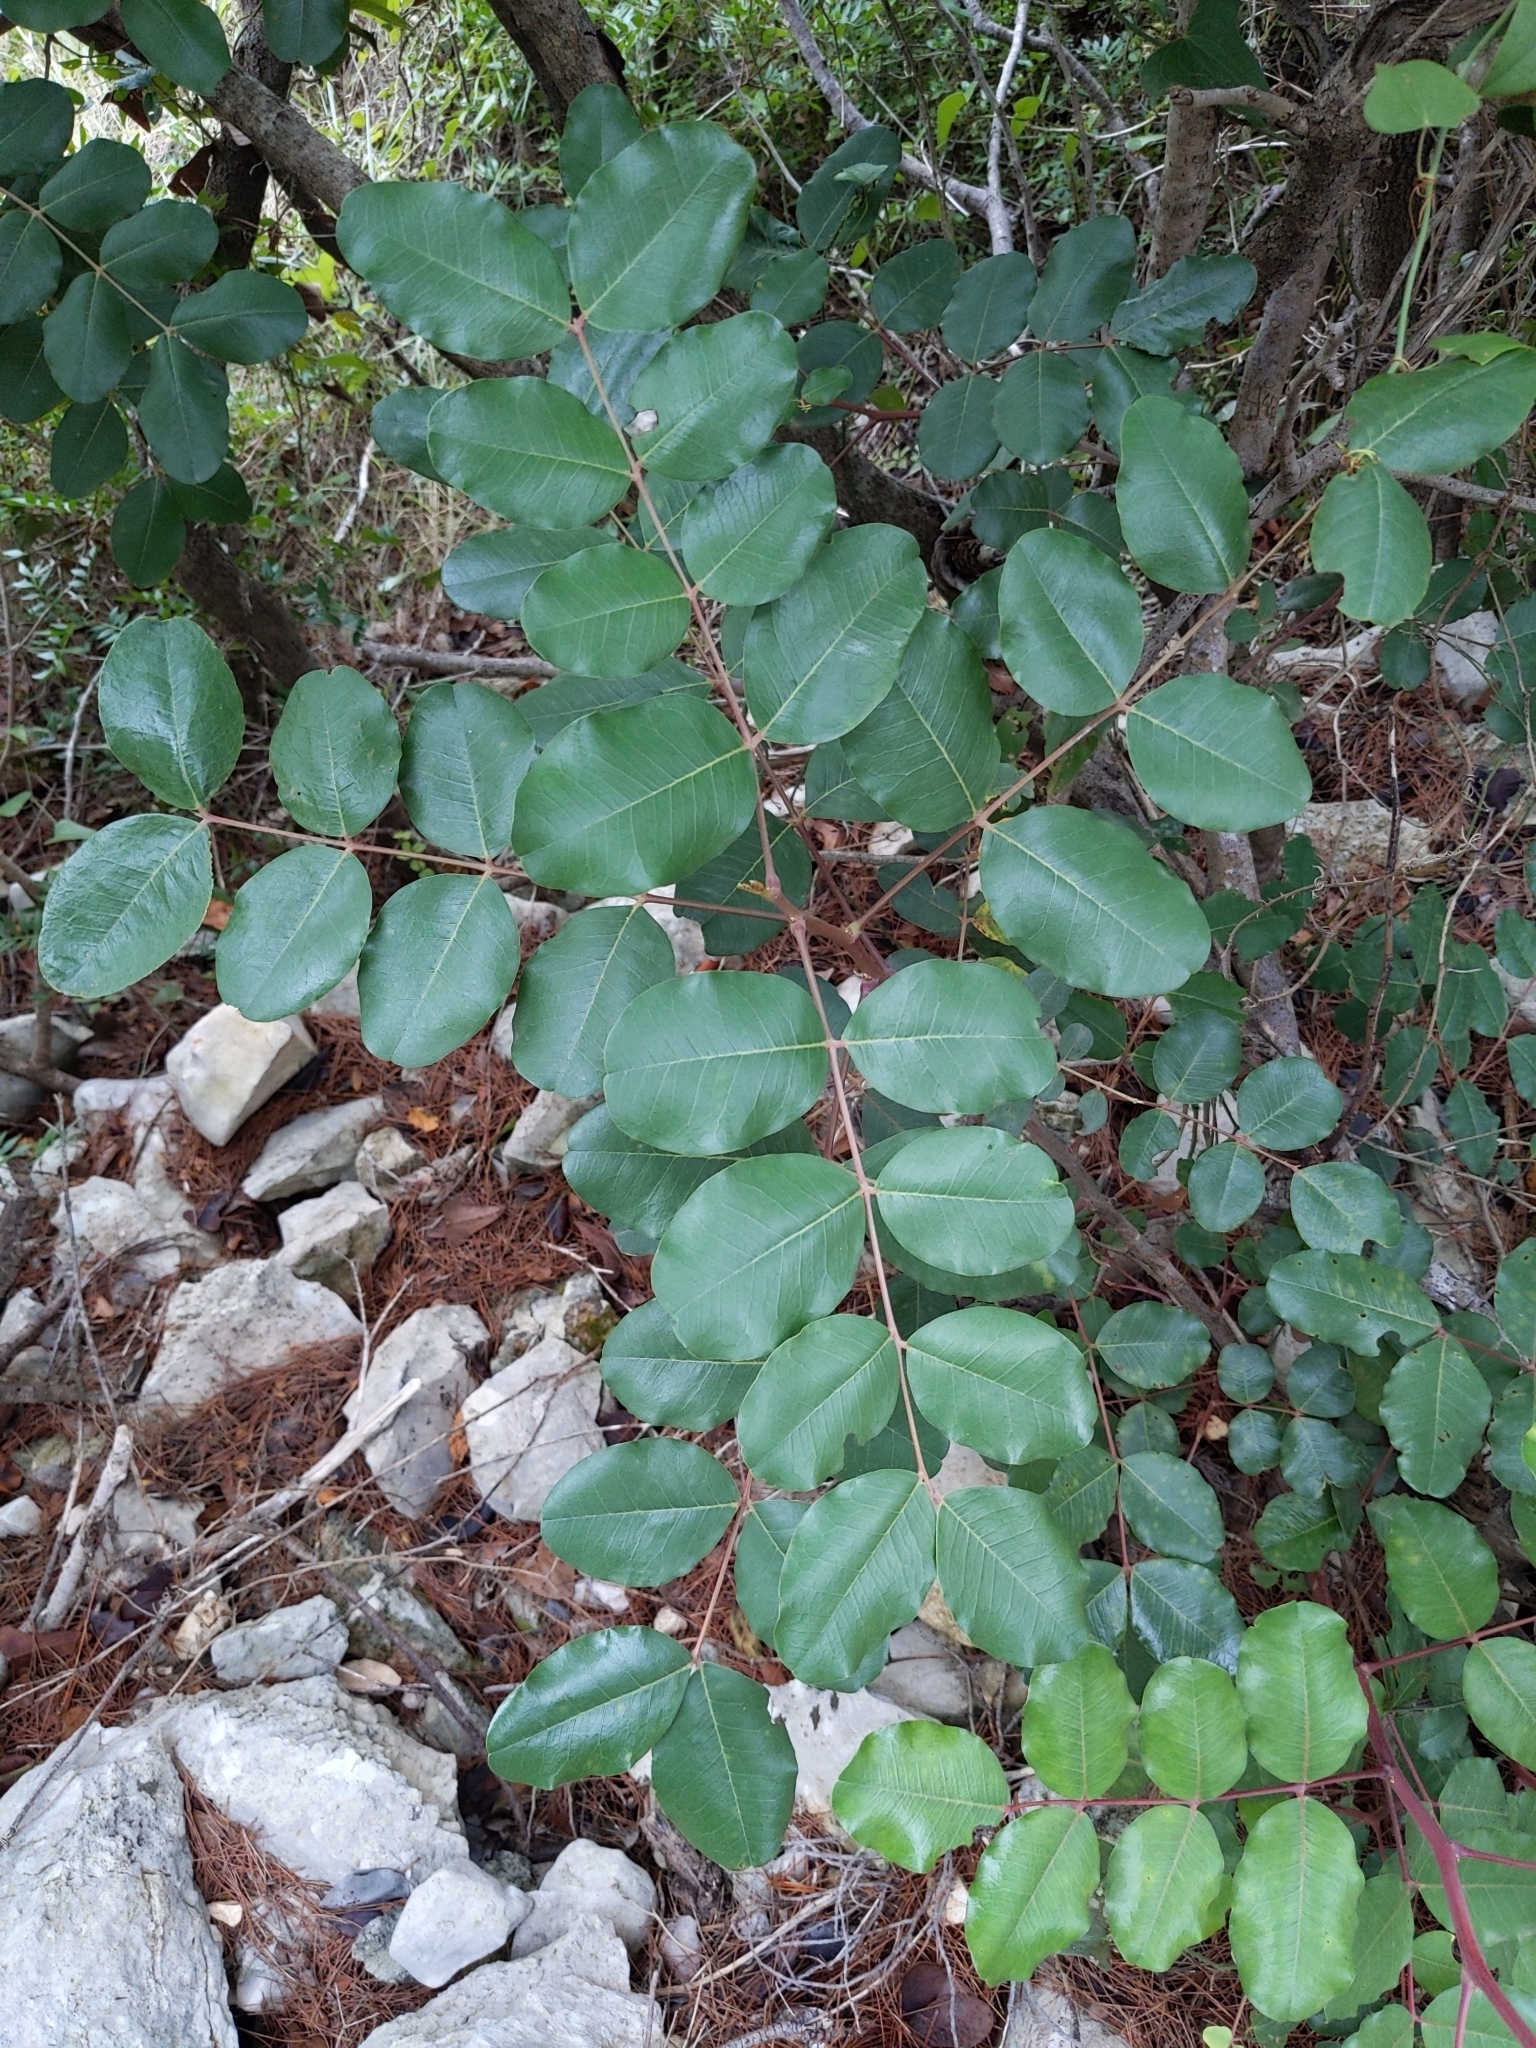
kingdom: Plantae
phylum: Tracheophyta
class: Magnoliopsida
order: Fabales
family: Fabaceae
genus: Ceratonia
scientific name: Ceratonia siliqua
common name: Carob
